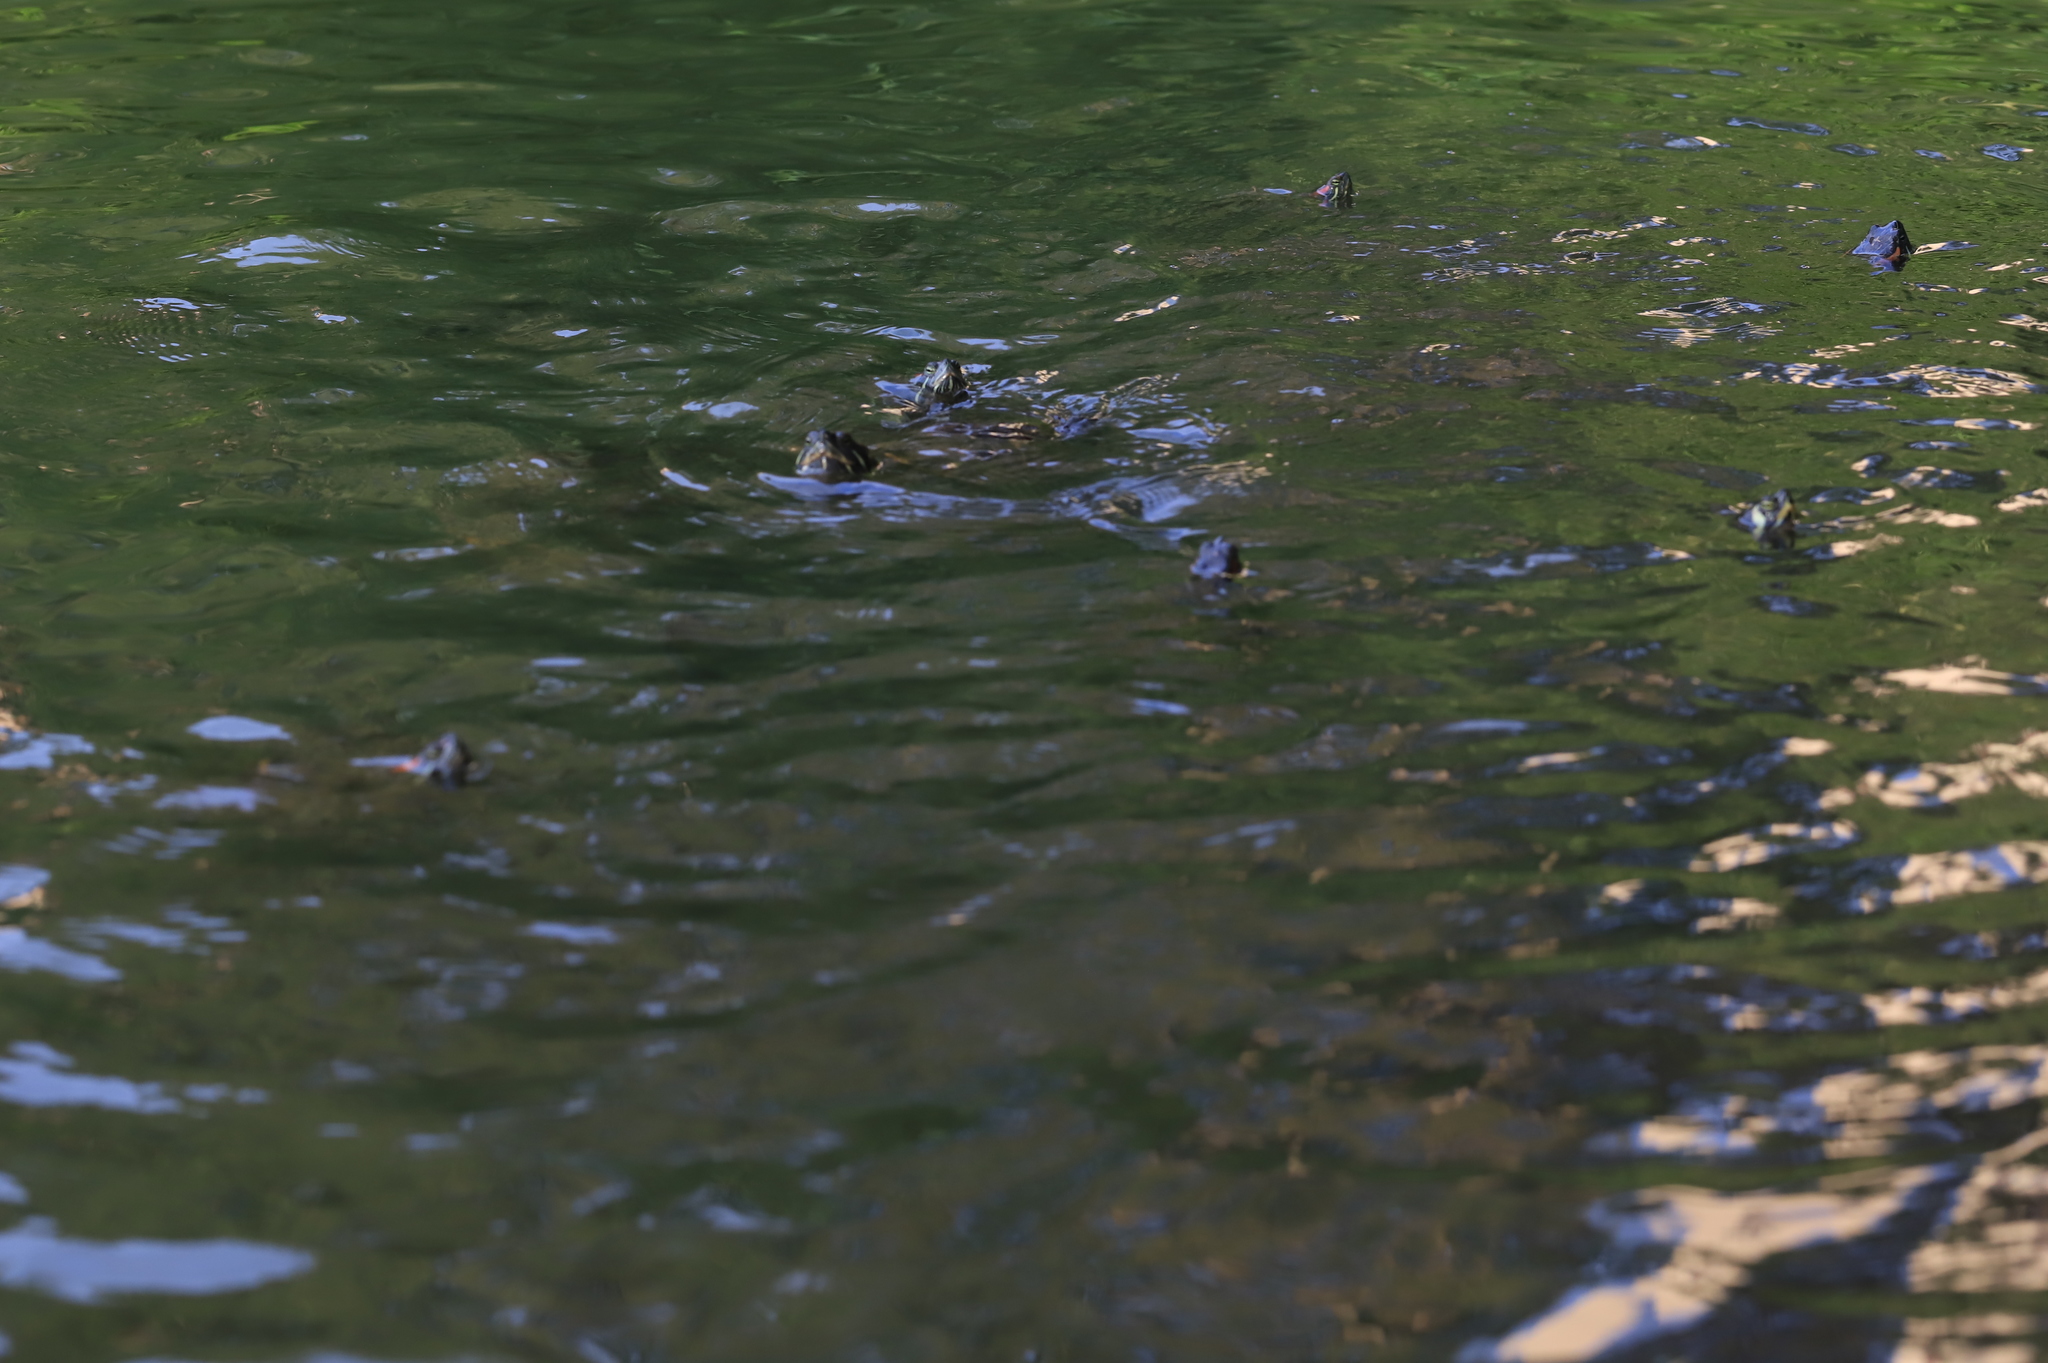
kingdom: Animalia
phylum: Chordata
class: Testudines
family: Emydidae
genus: Trachemys
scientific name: Trachemys scripta
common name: Slider
